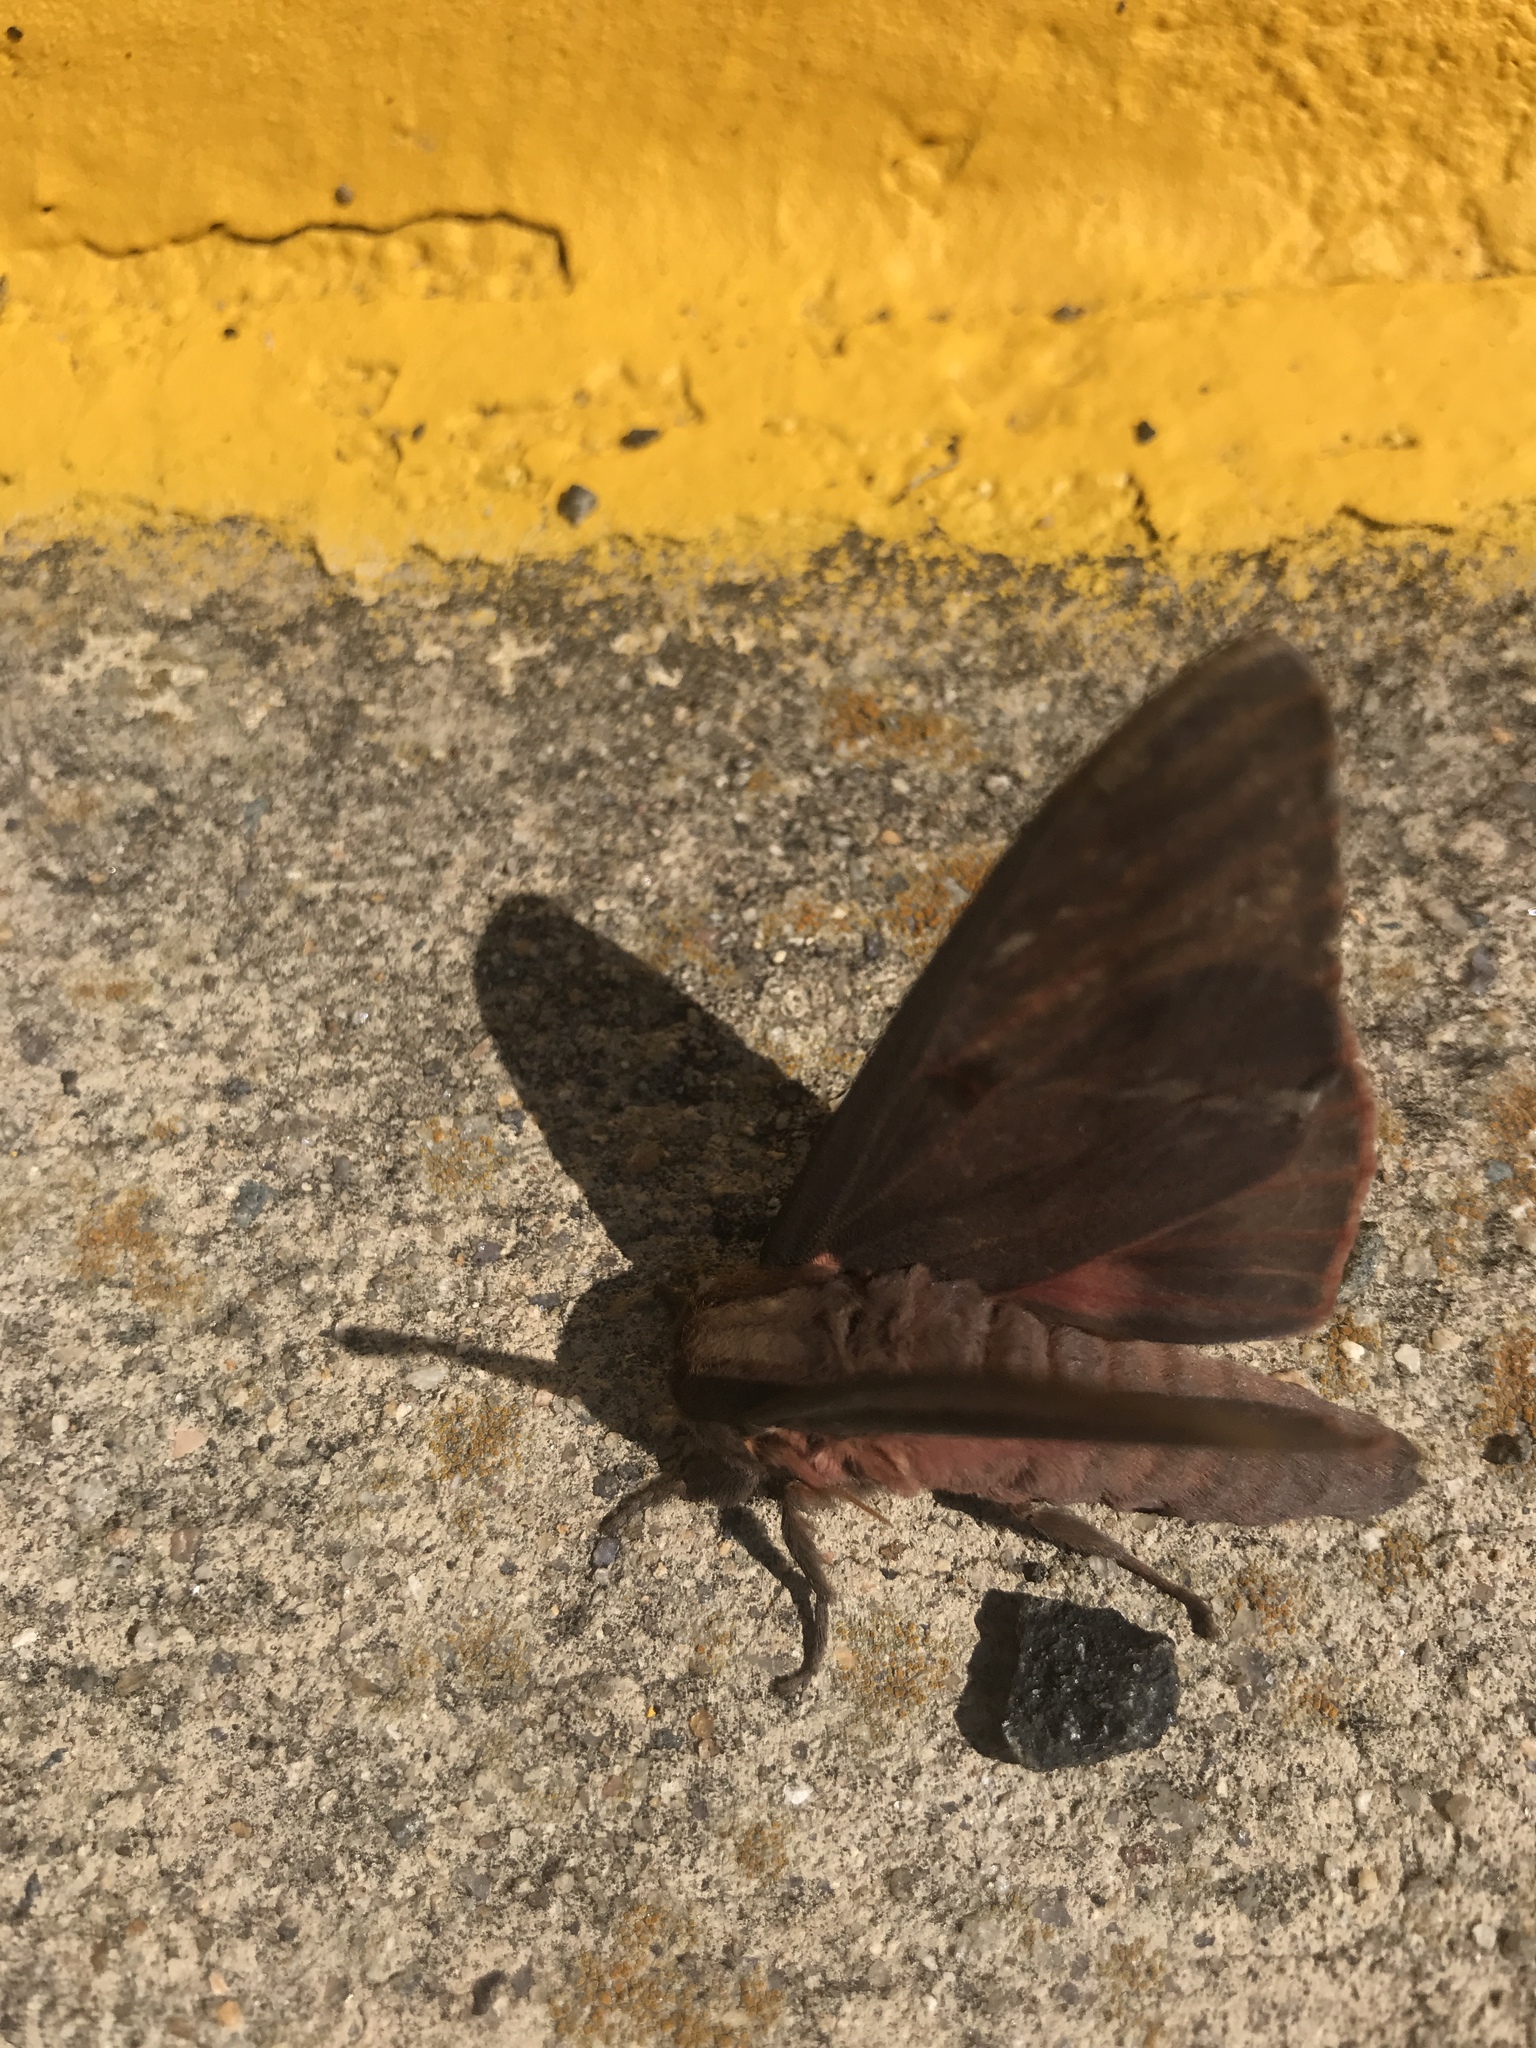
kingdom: Animalia
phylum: Arthropoda
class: Insecta
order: Lepidoptera
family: Saturniidae
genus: Citheronia
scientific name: Citheronia sepulcralis
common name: Pine-devil moth
